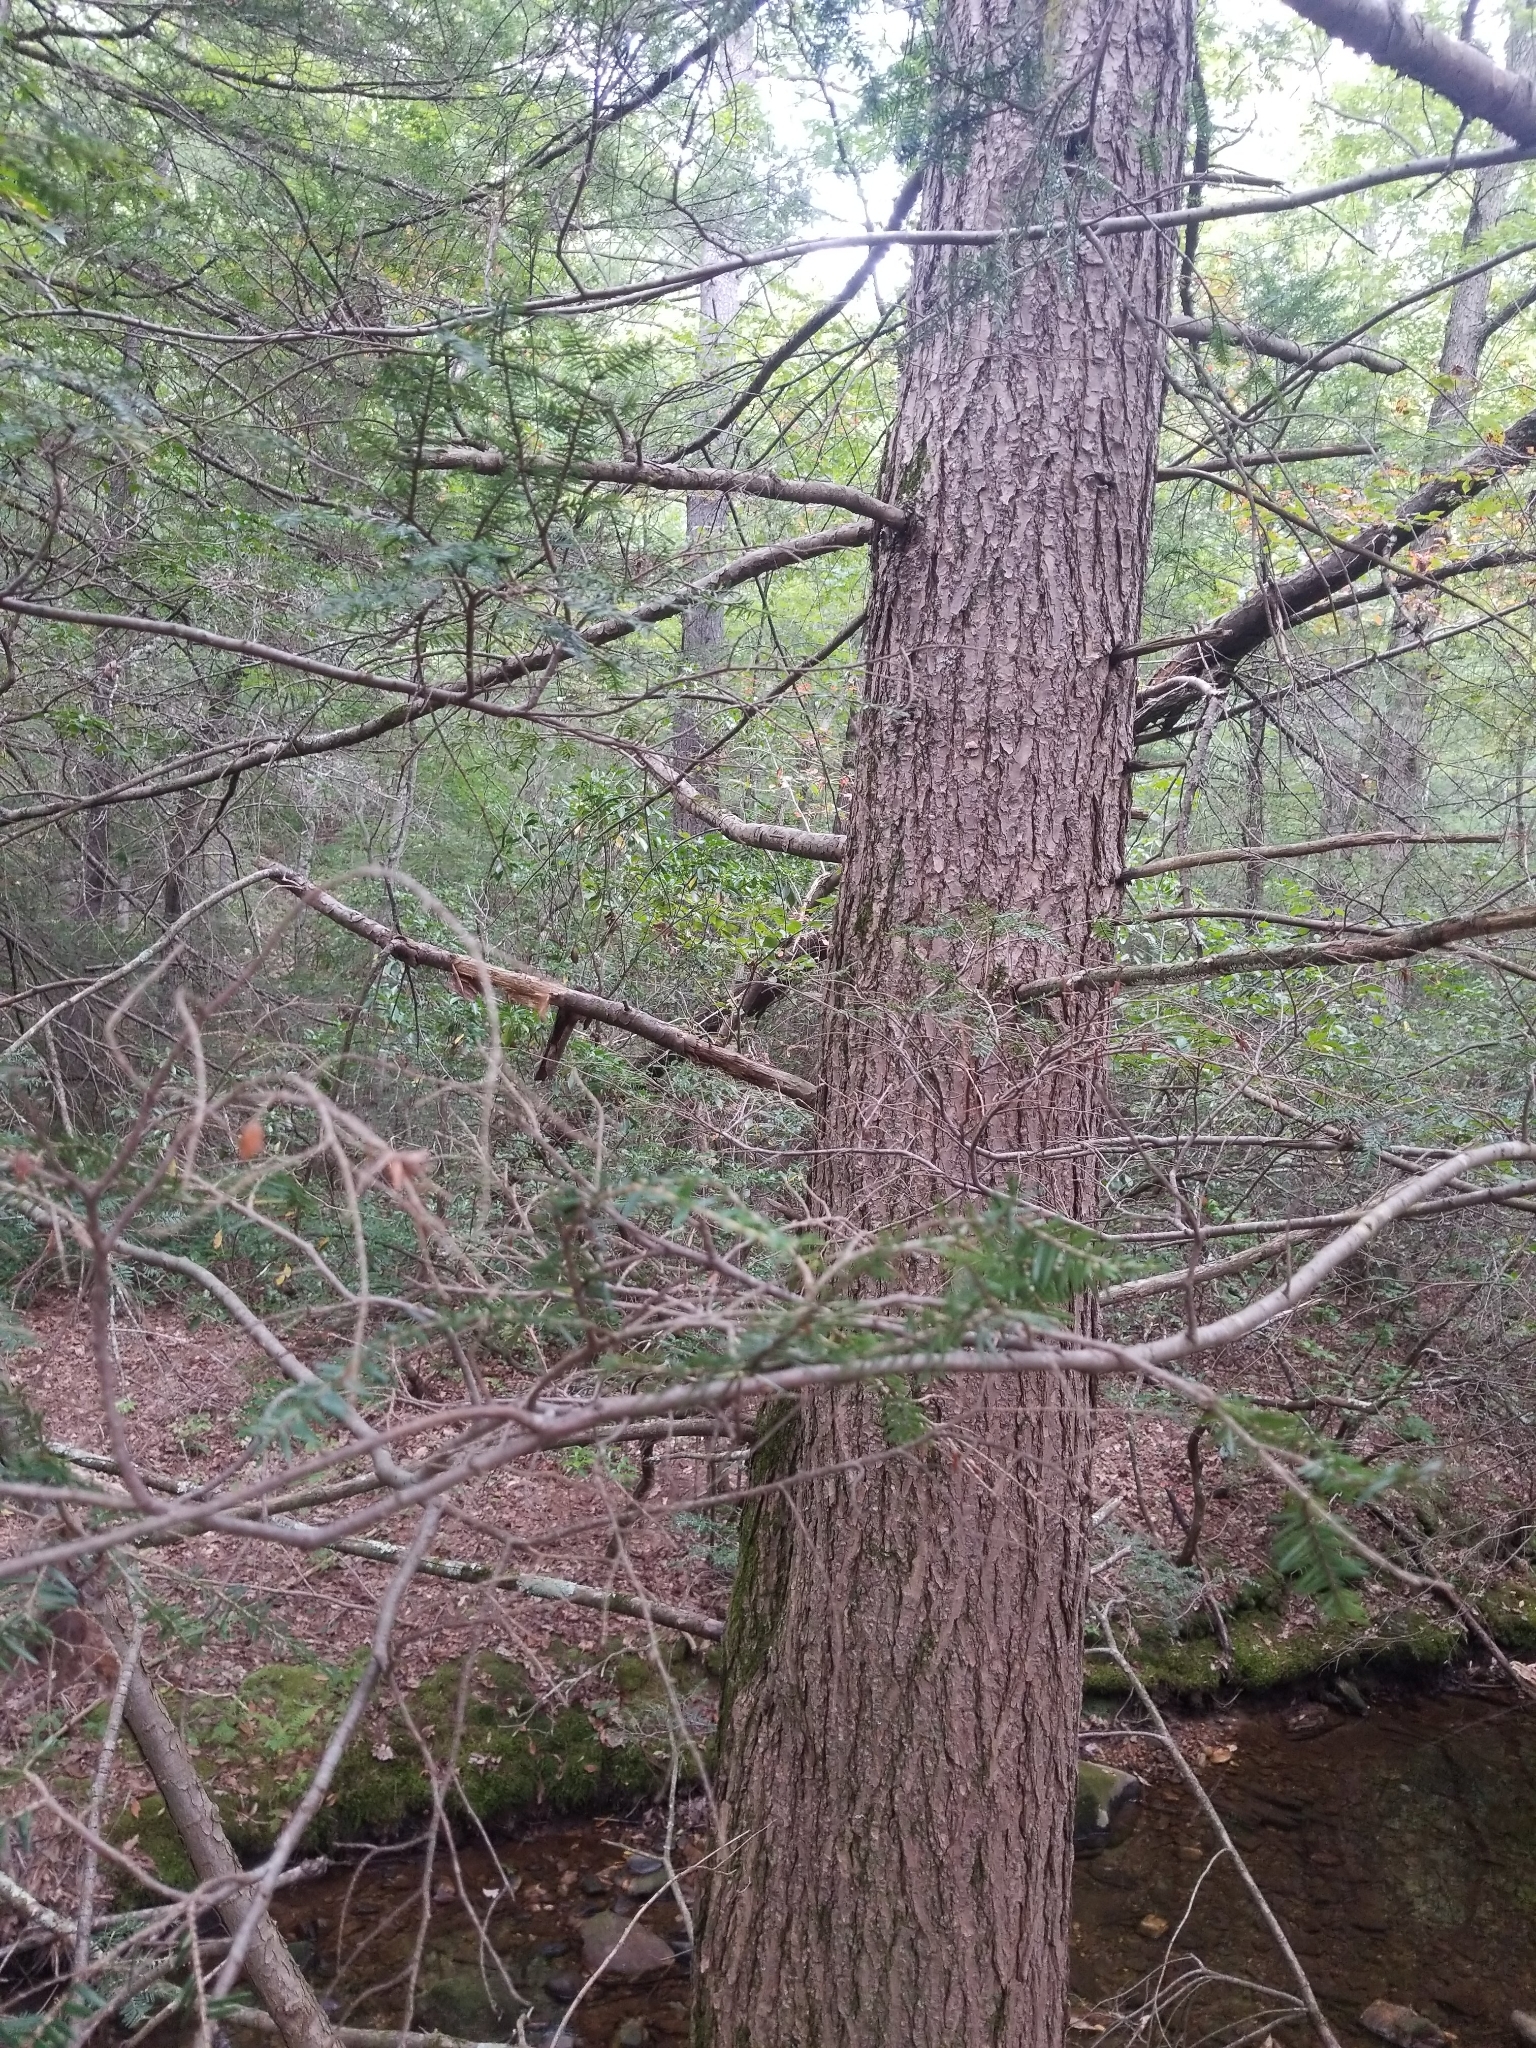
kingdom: Plantae
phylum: Tracheophyta
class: Pinopsida
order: Pinales
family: Pinaceae
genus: Tsuga
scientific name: Tsuga canadensis
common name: Eastern hemlock
